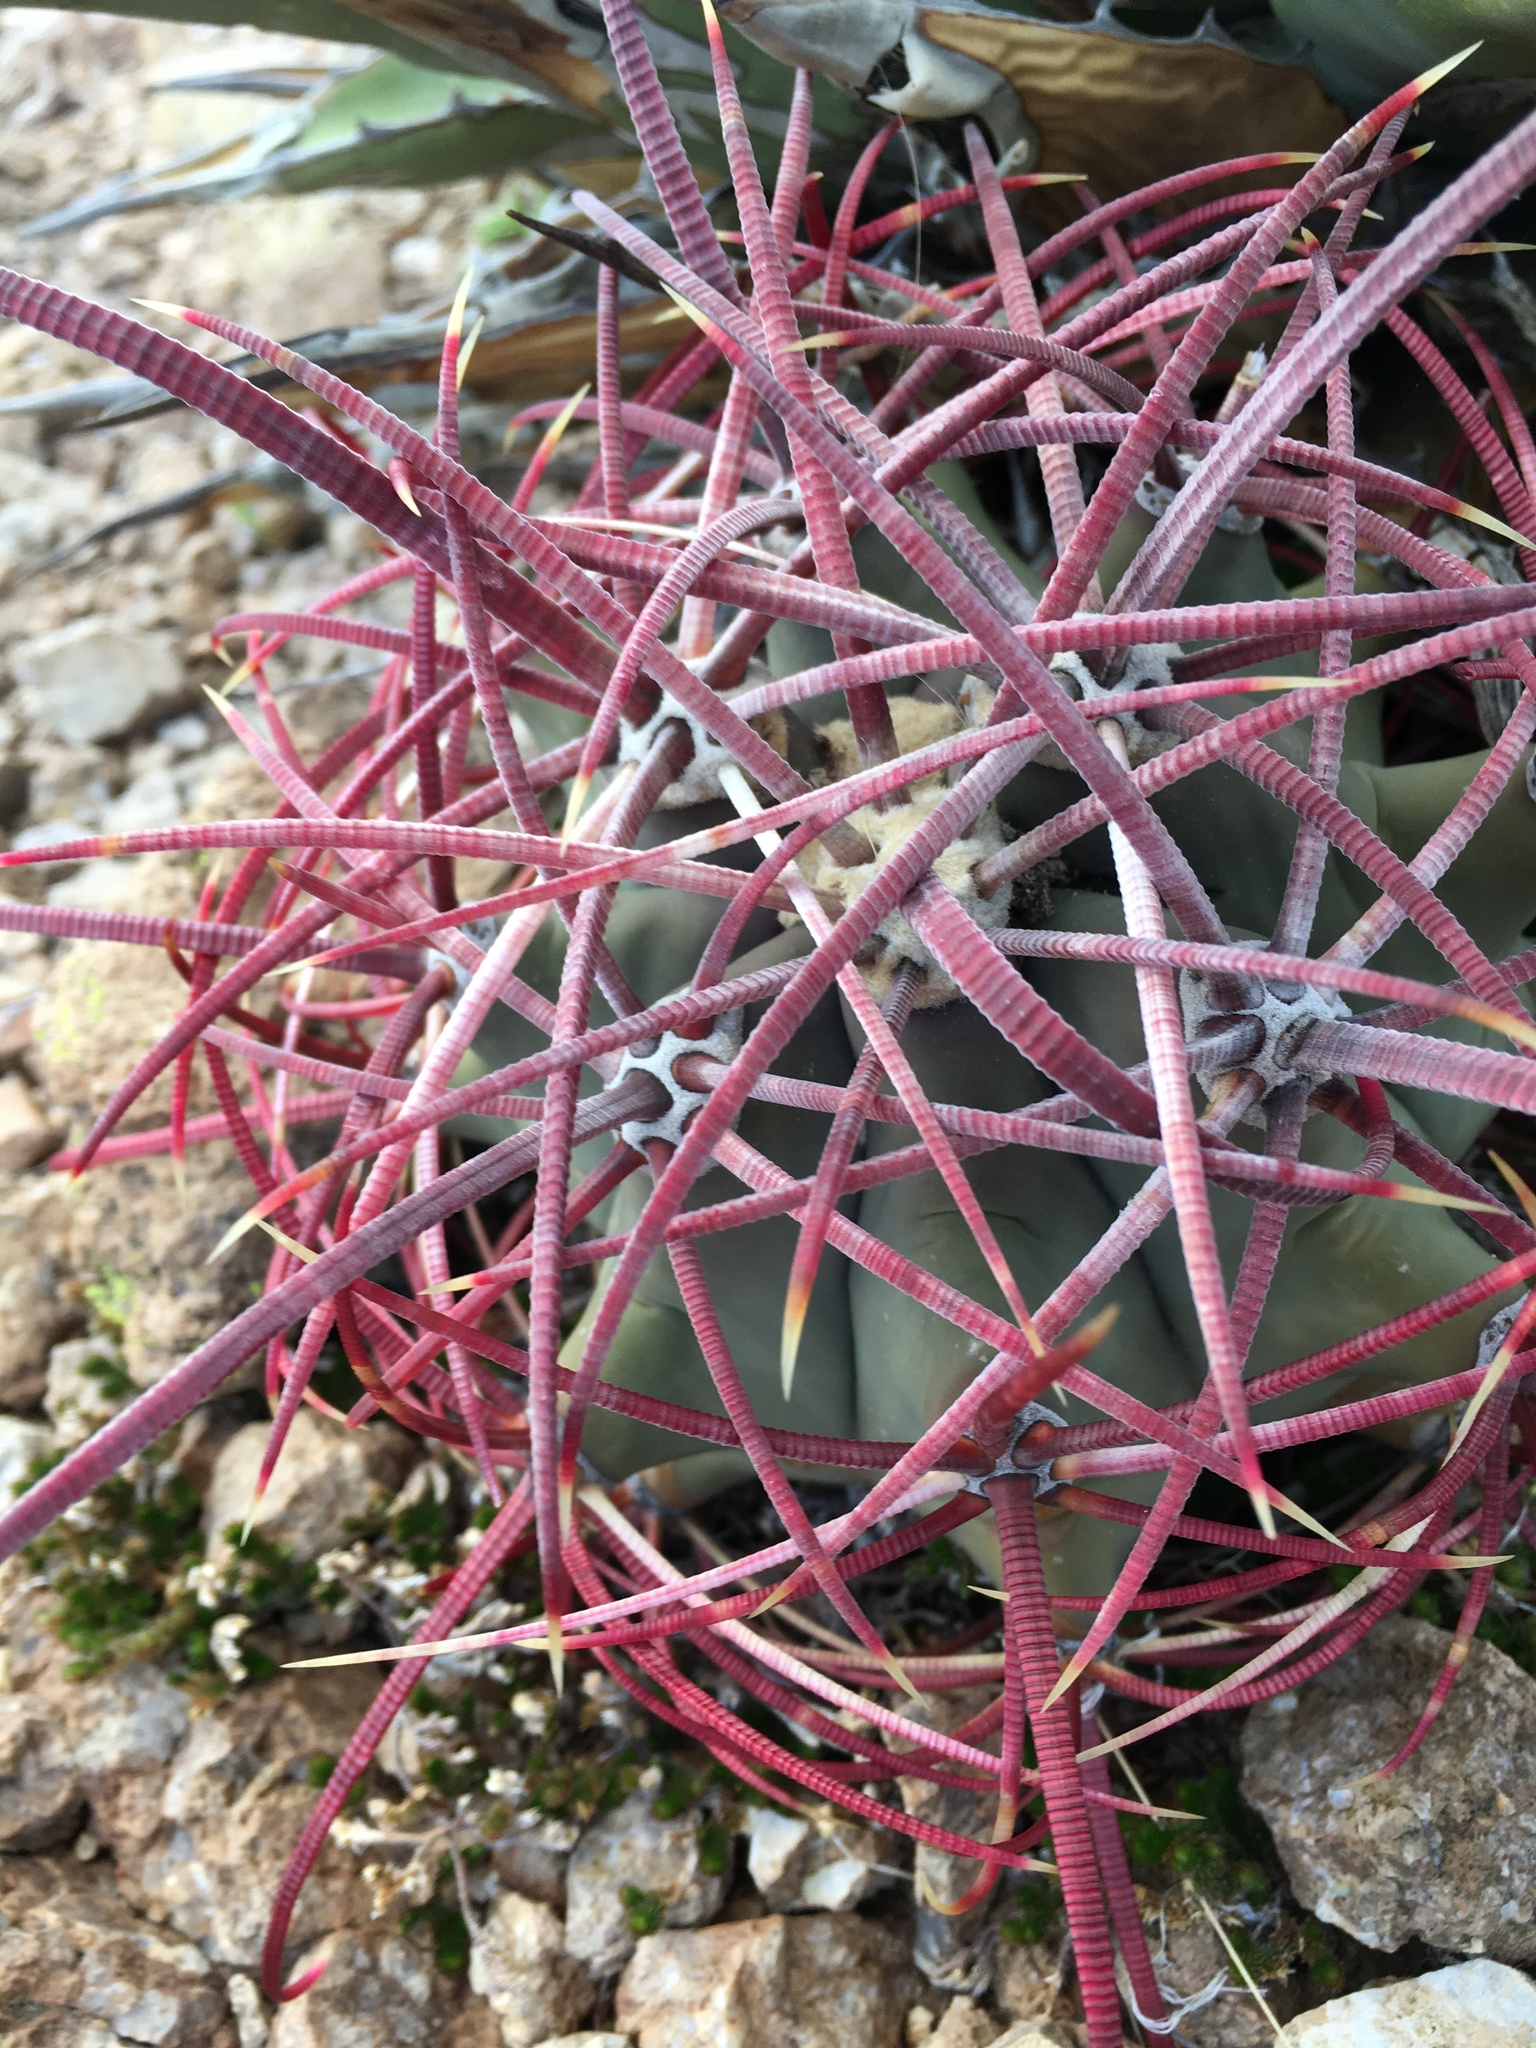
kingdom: Plantae
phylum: Tracheophyta
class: Magnoliopsida
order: Caryophyllales
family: Cactaceae
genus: Ferocactus
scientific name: Ferocactus emoryi
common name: Emory's barrel cactus
